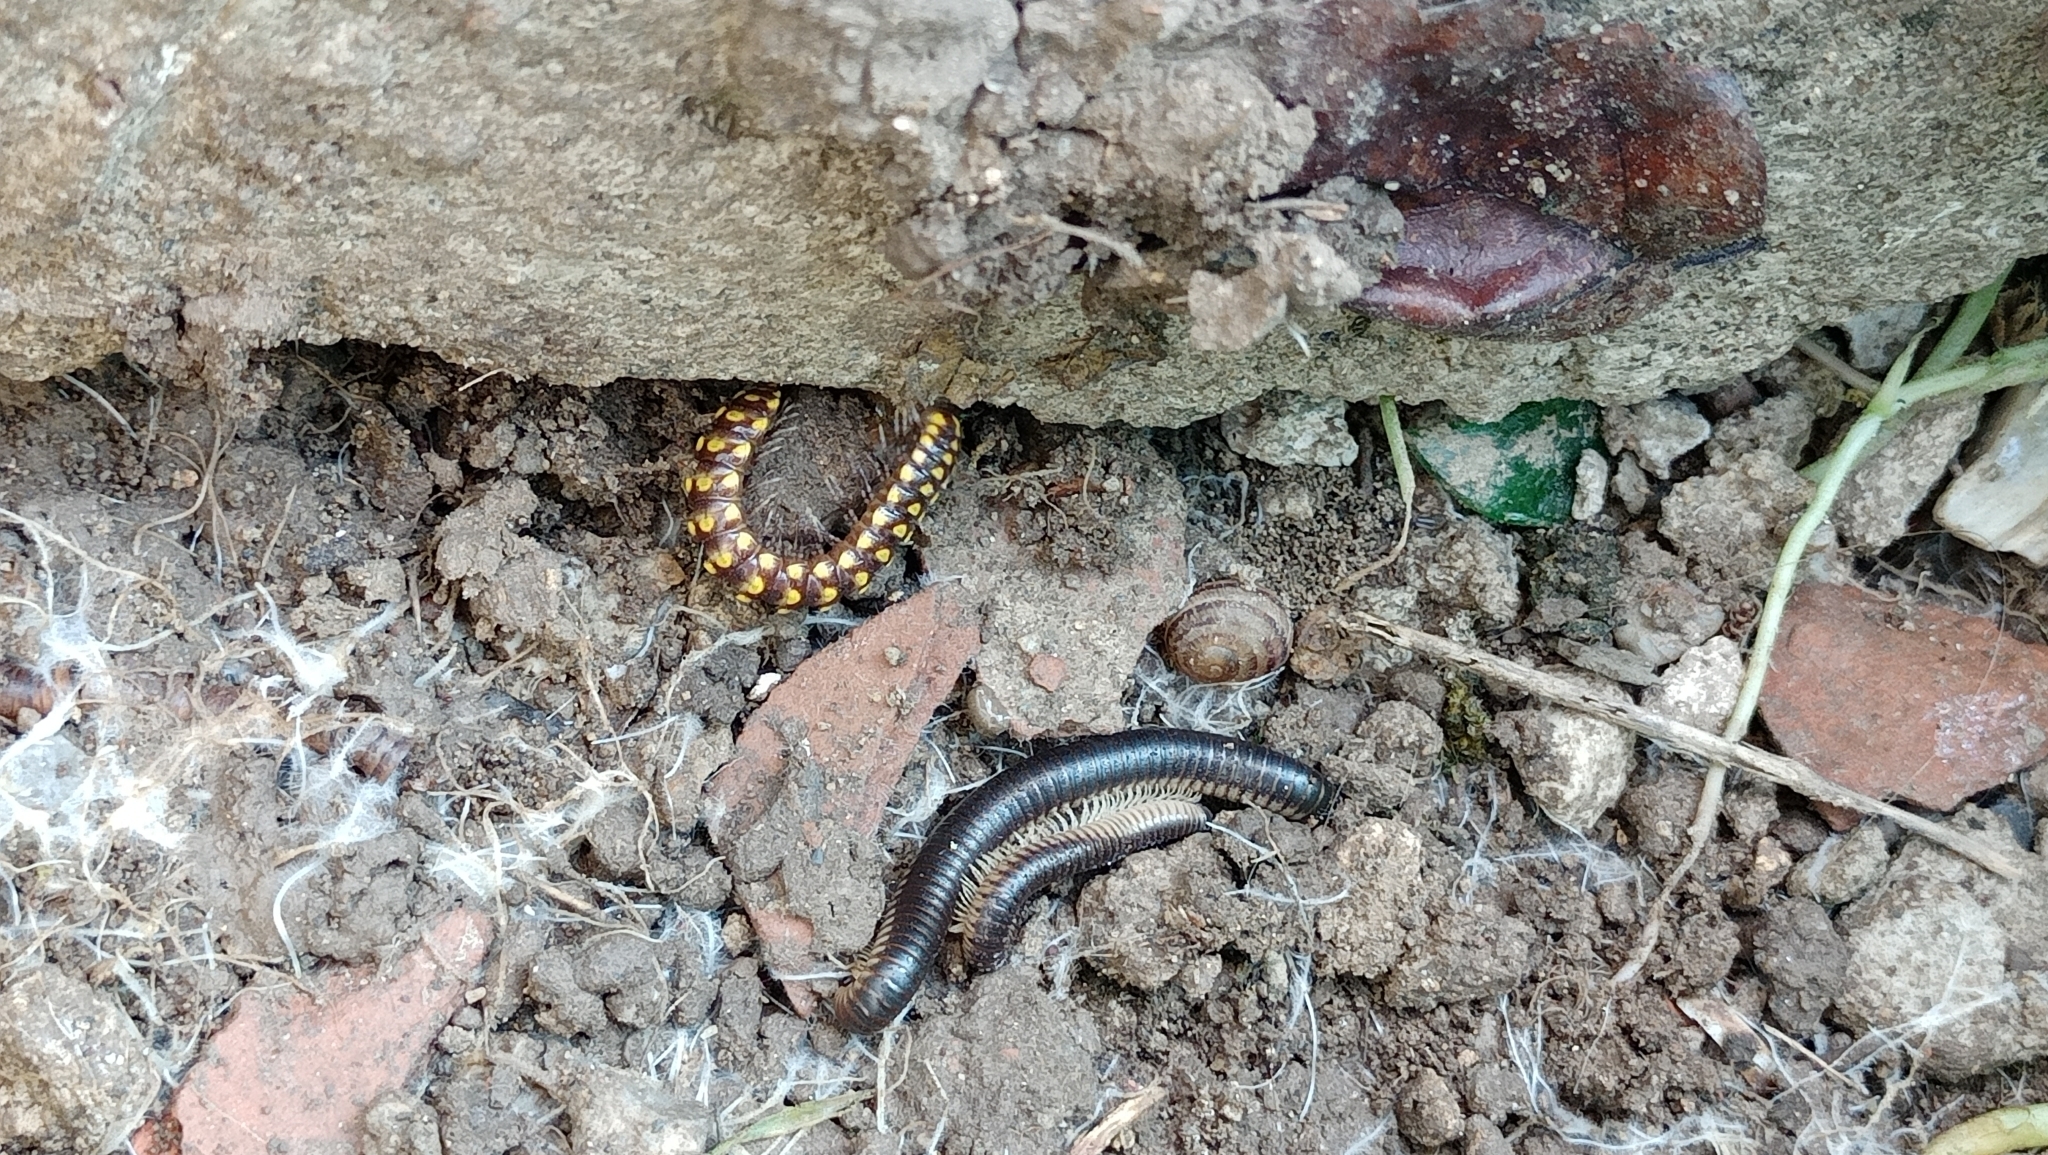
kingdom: Animalia
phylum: Arthropoda
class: Diplopoda
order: Julida
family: Julidae
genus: Pachyiulus
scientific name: Pachyiulus flavipes
